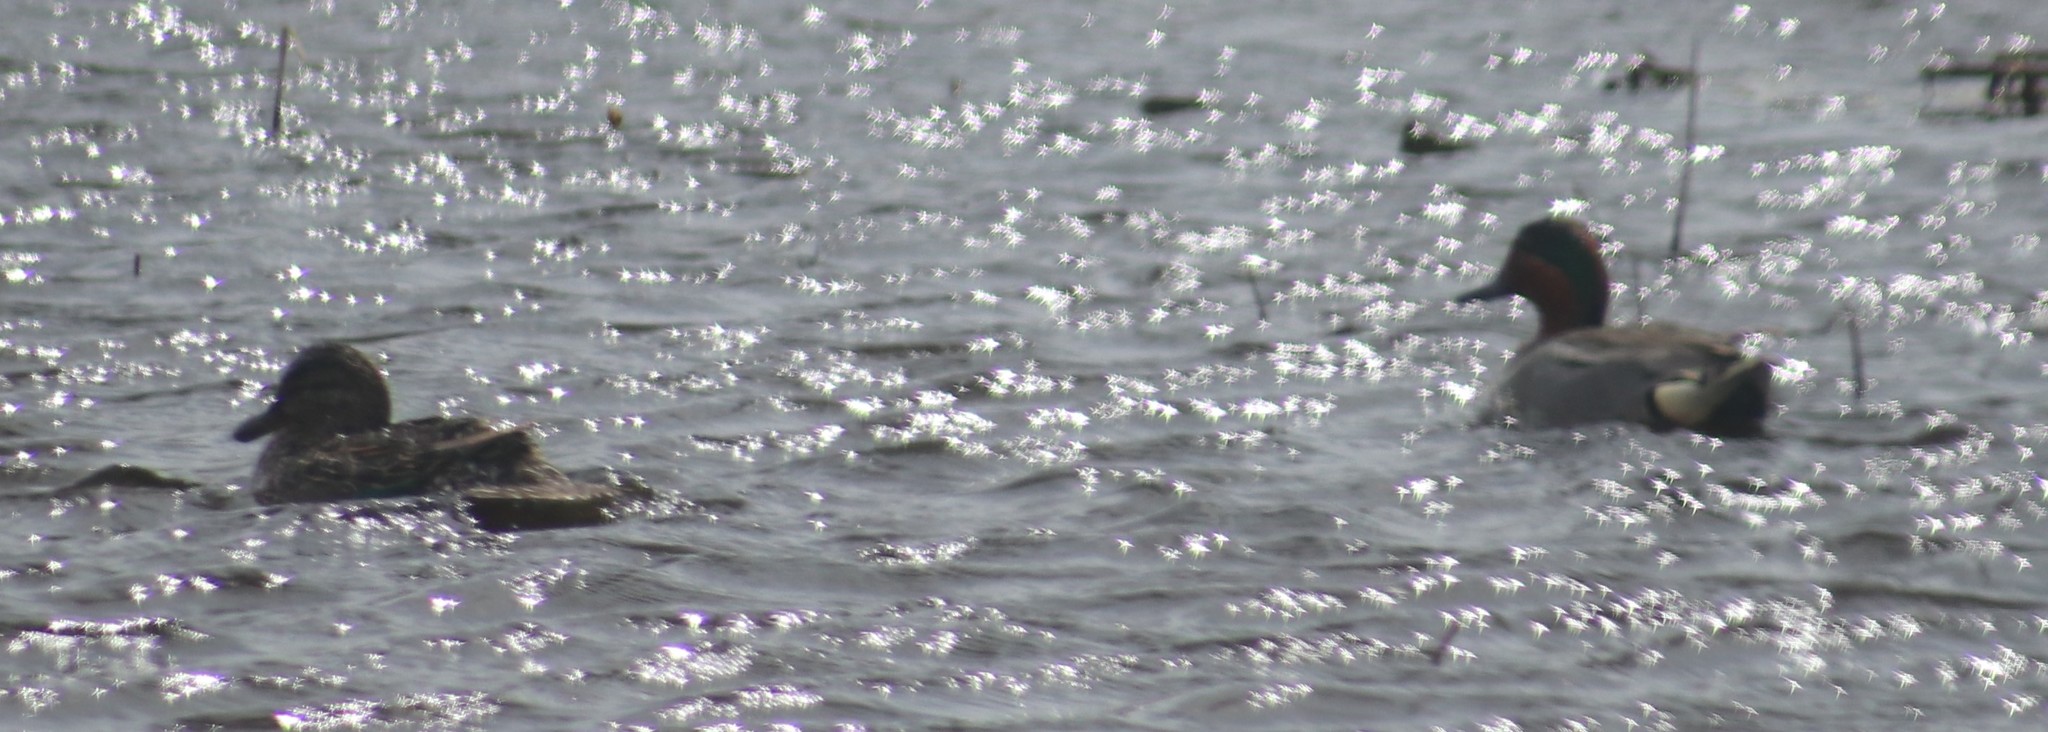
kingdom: Animalia
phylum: Chordata
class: Aves
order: Anseriformes
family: Anatidae
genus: Anas
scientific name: Anas crecca
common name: Eurasian teal
